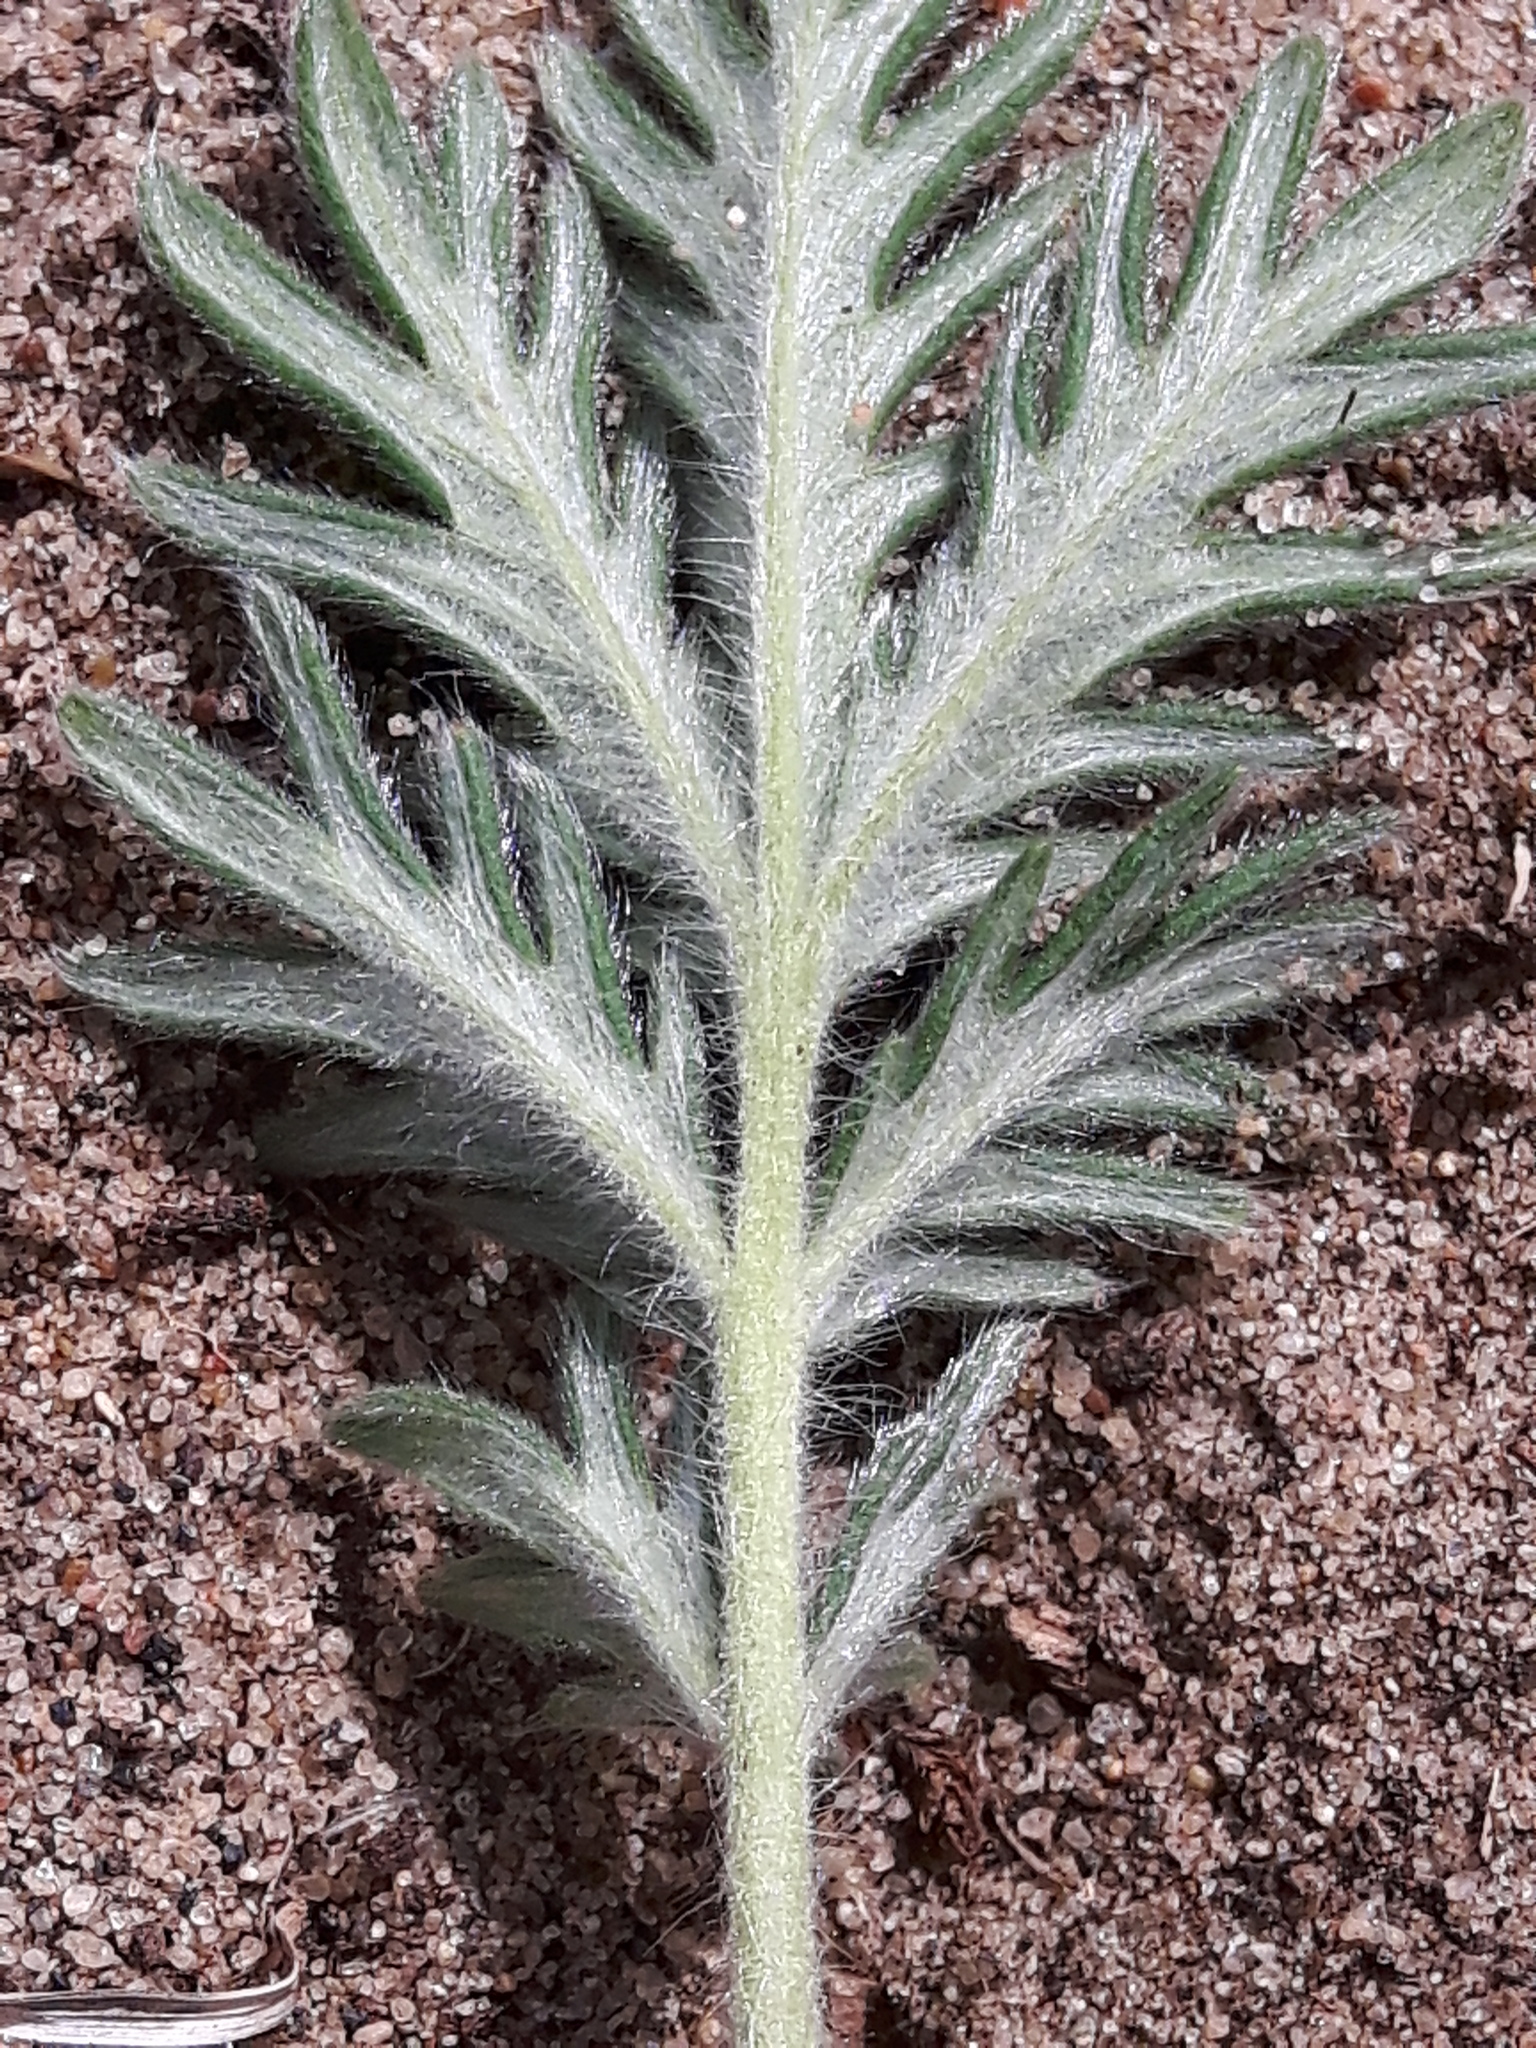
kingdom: Plantae
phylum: Tracheophyta
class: Magnoliopsida
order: Rosales
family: Rosaceae
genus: Potentilla
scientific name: Potentilla pensylvanica
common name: Pennsylvania cinquefoil
